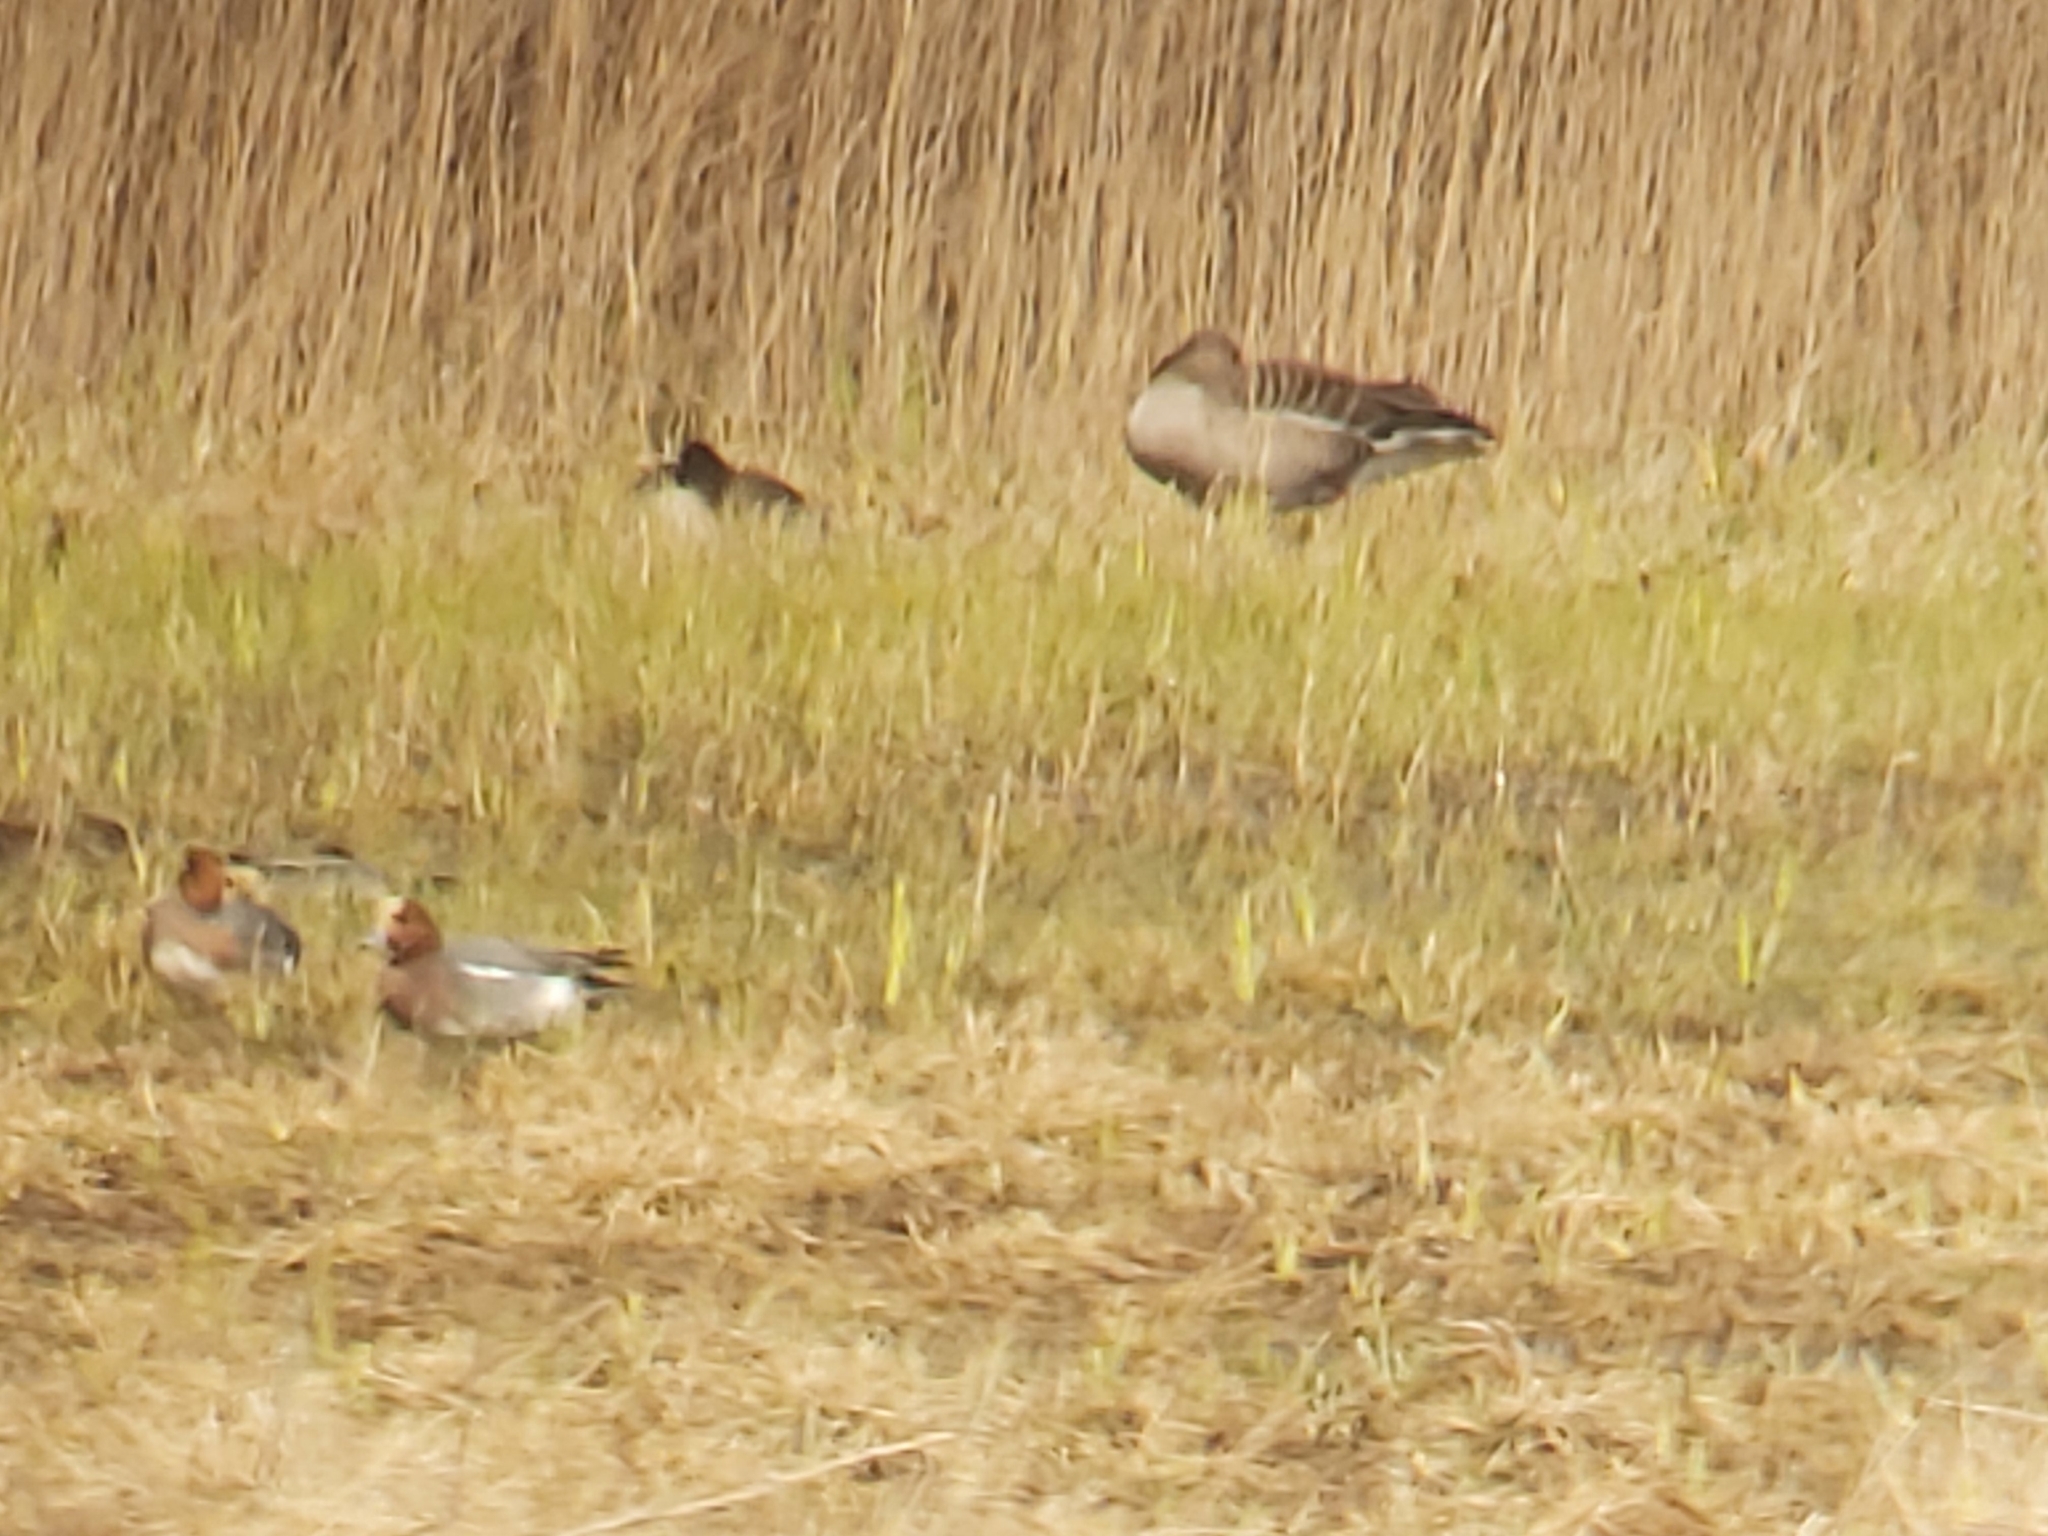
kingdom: Animalia
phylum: Chordata
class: Aves
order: Anseriformes
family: Anatidae
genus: Mareca
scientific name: Mareca penelope
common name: Eurasian wigeon
